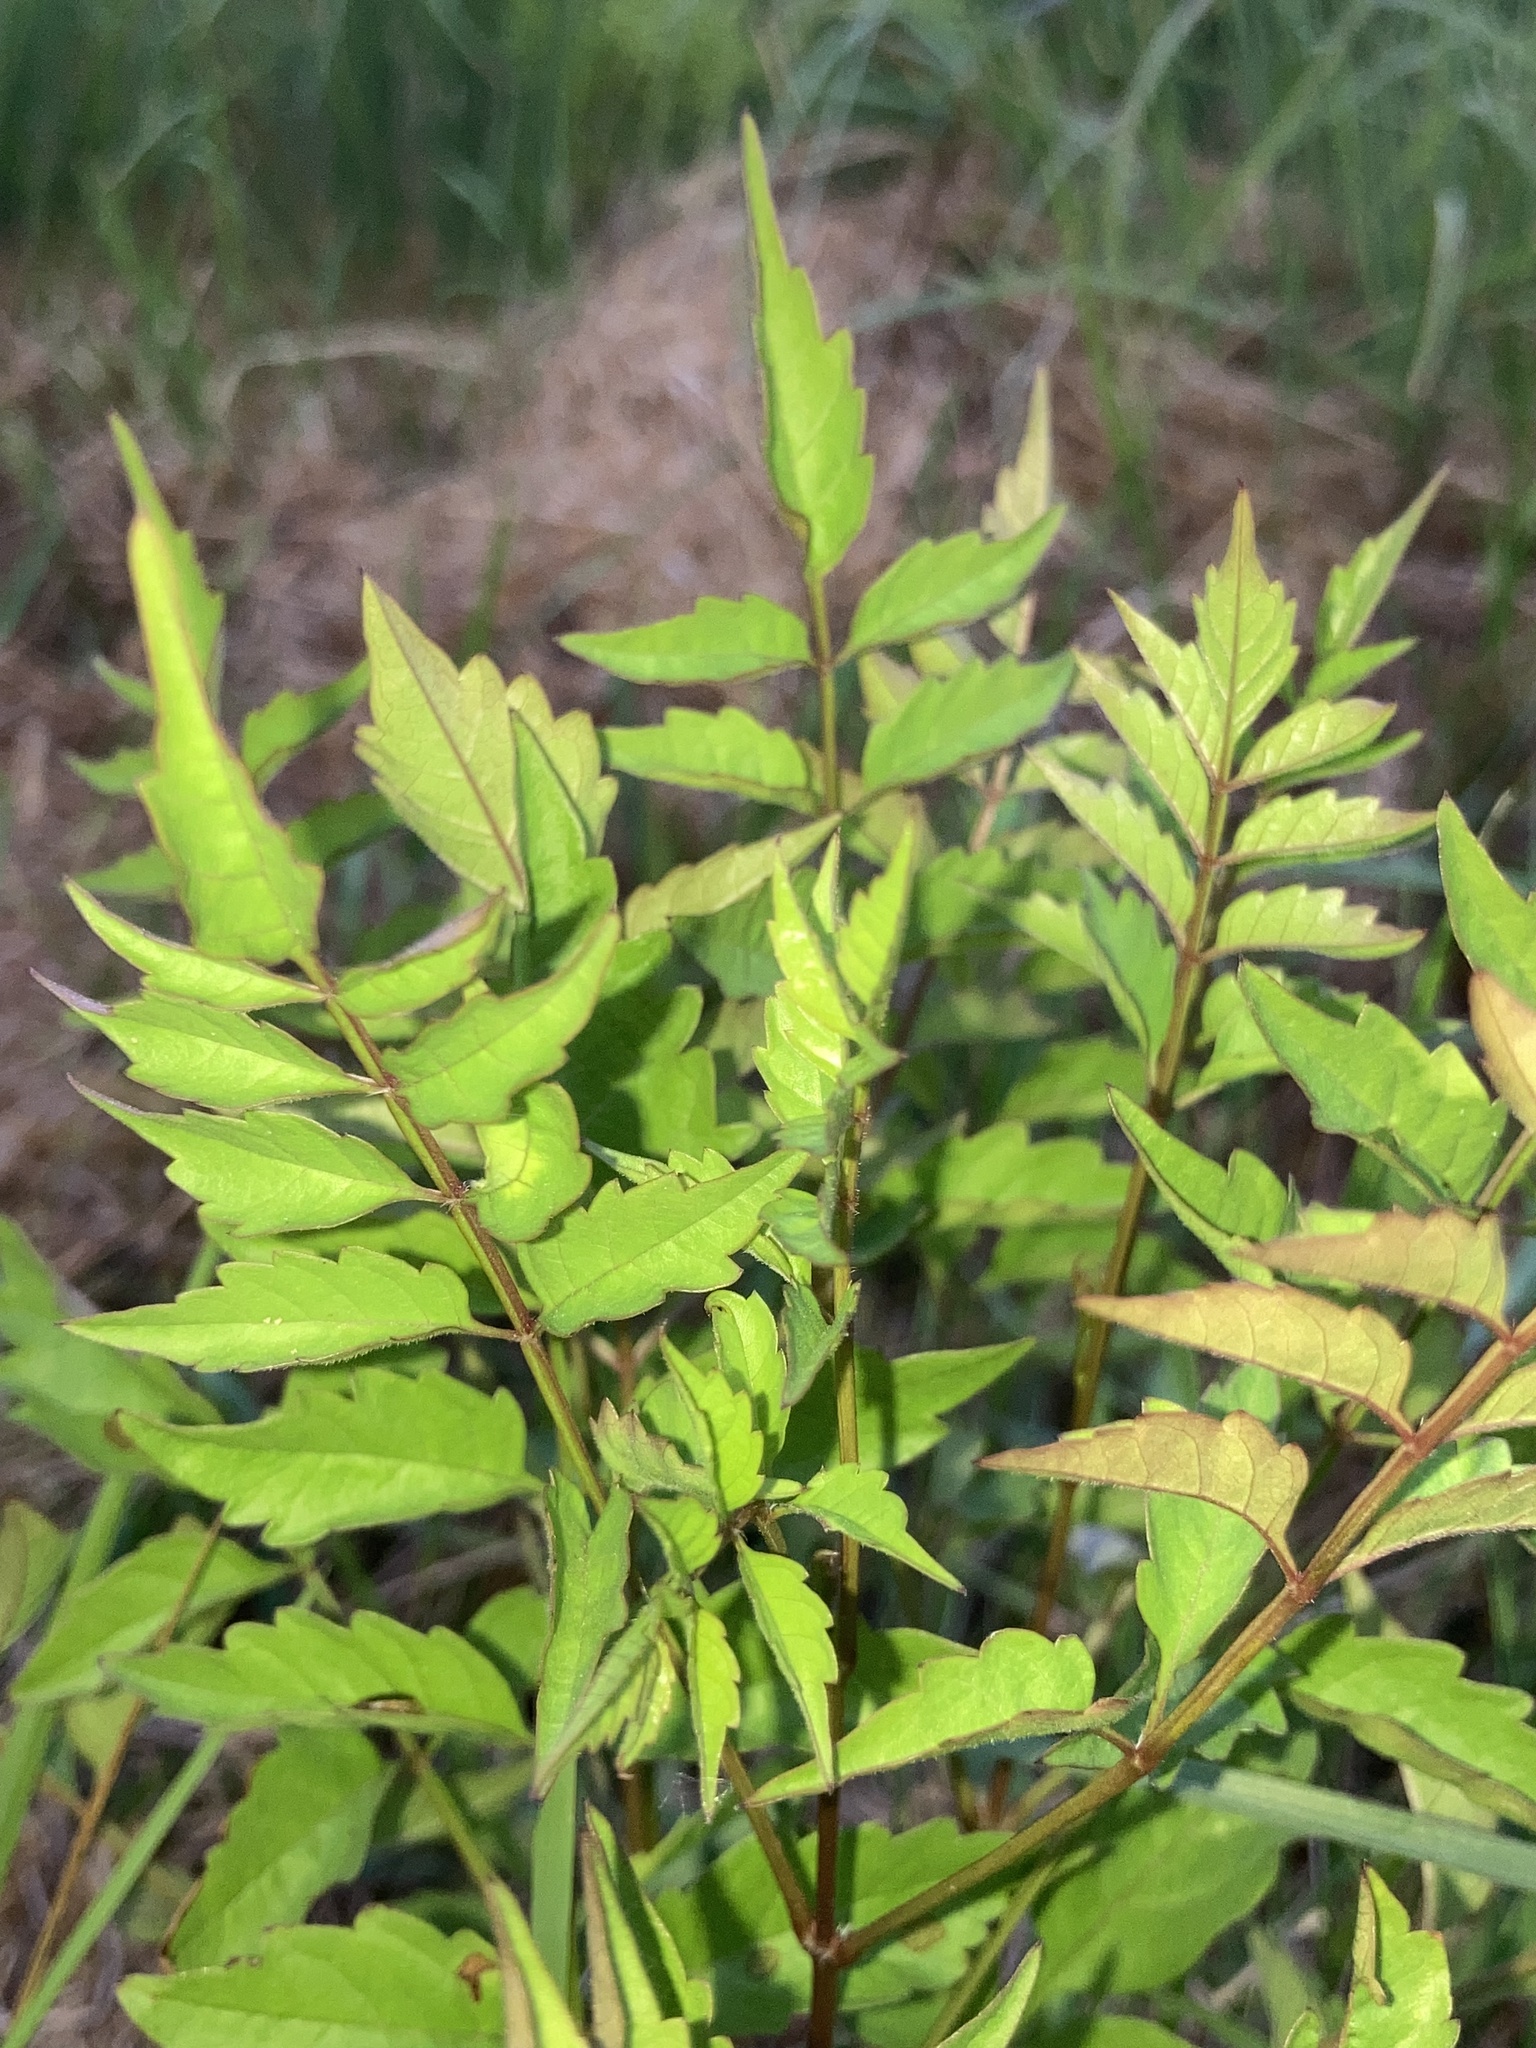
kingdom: Plantae
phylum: Tracheophyta
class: Magnoliopsida
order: Lamiales
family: Bignoniaceae
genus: Campsis
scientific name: Campsis radicans
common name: Trumpet-creeper
